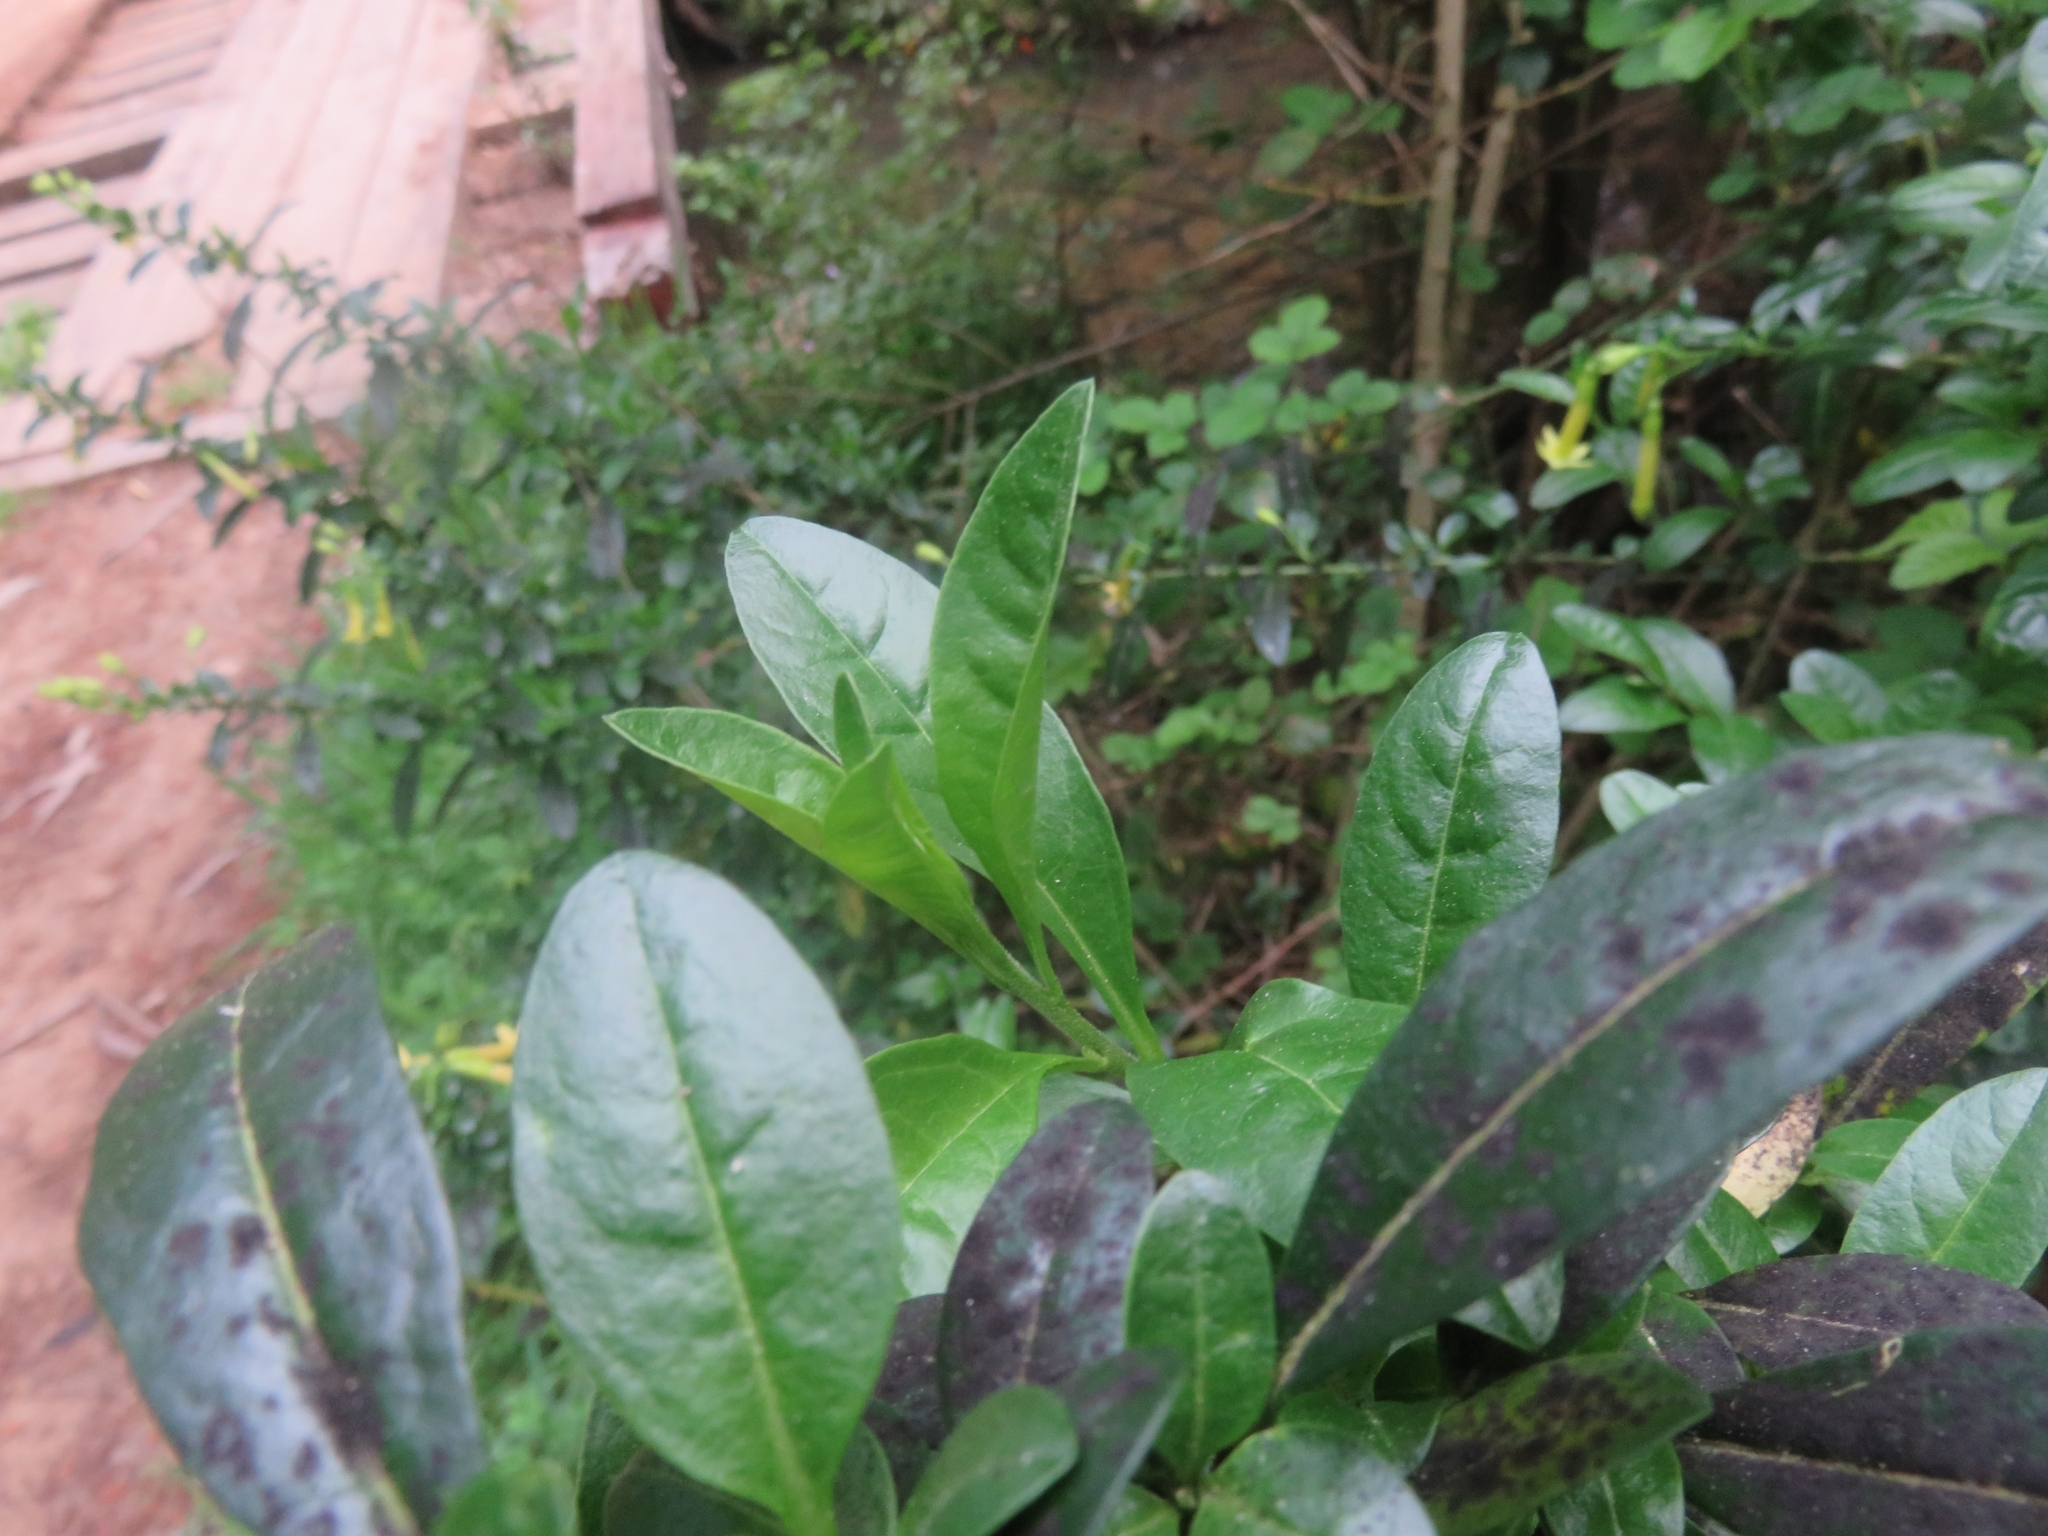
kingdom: Plantae
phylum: Tracheophyta
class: Magnoliopsida
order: Solanales
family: Solanaceae
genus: Vestia
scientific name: Vestia foetida
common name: Huevil
